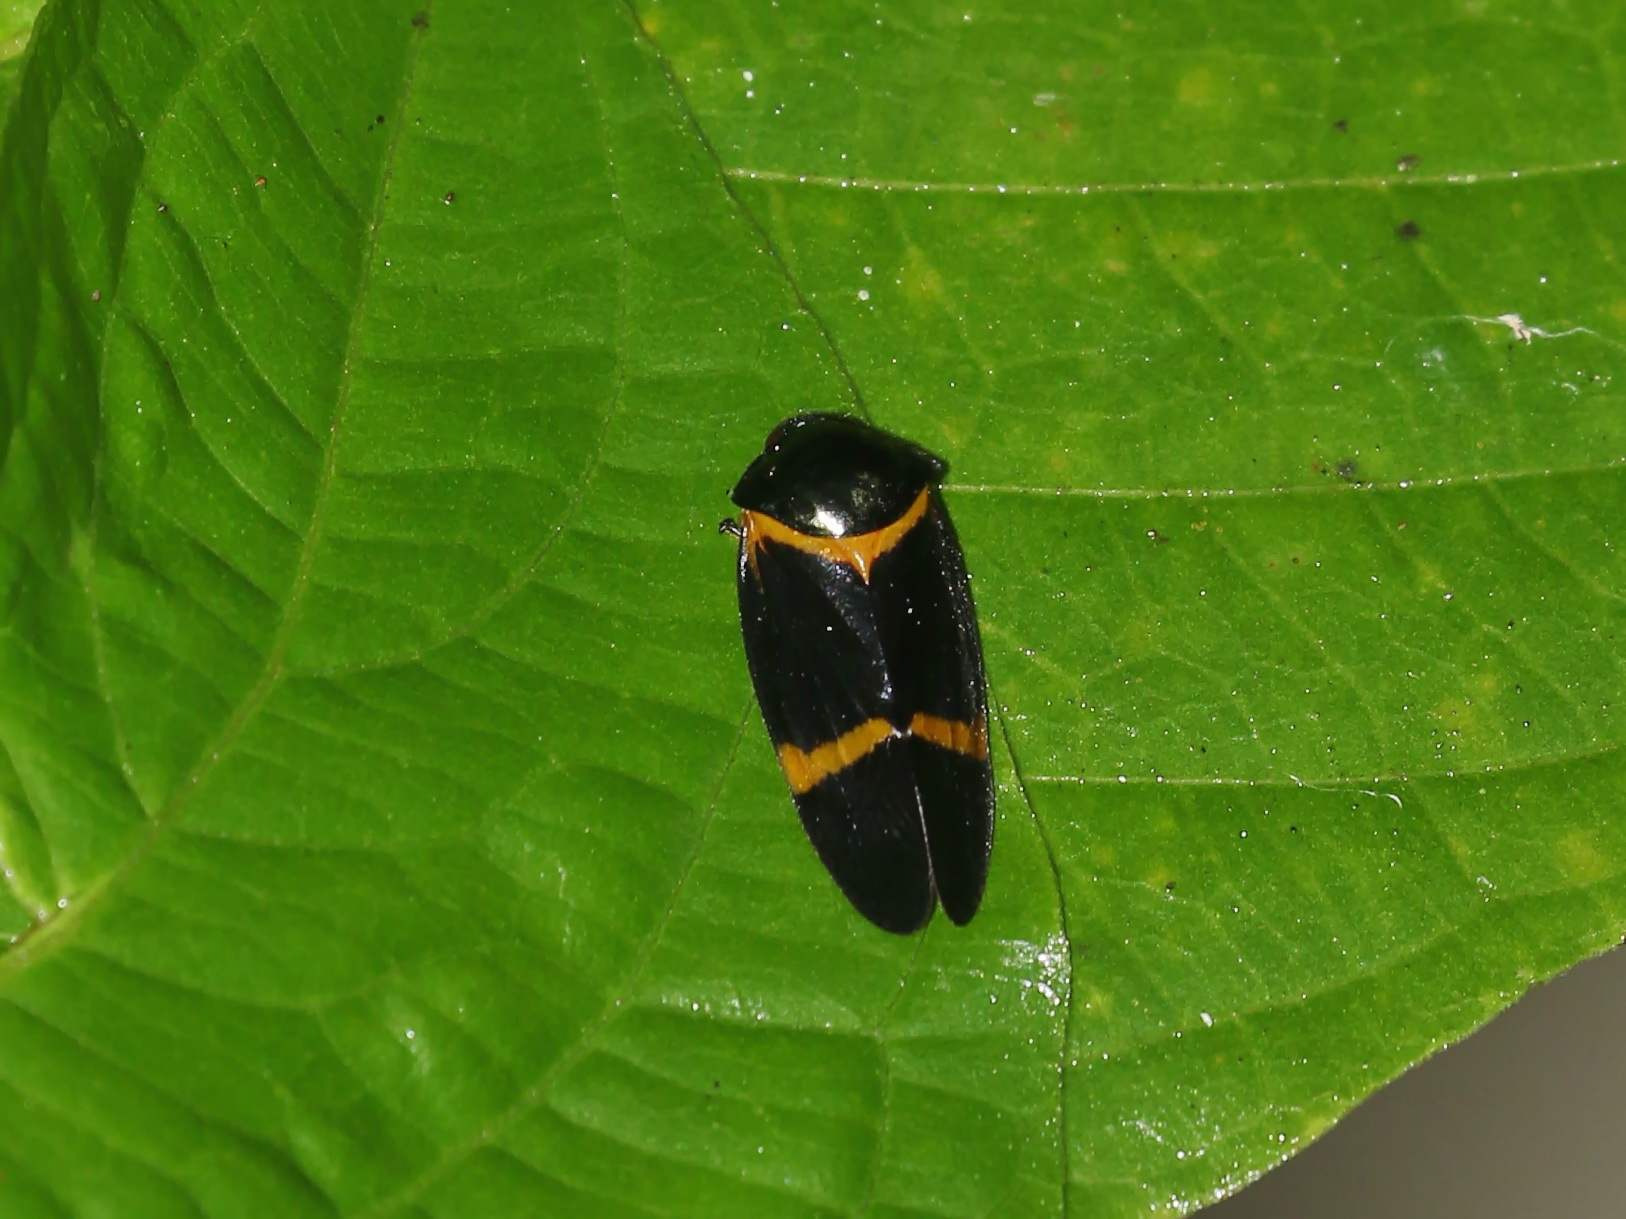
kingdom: Animalia
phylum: Arthropoda
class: Insecta
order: Hemiptera
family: Cercopidae
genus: Cosmoscarta
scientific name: Cosmoscarta egeria
